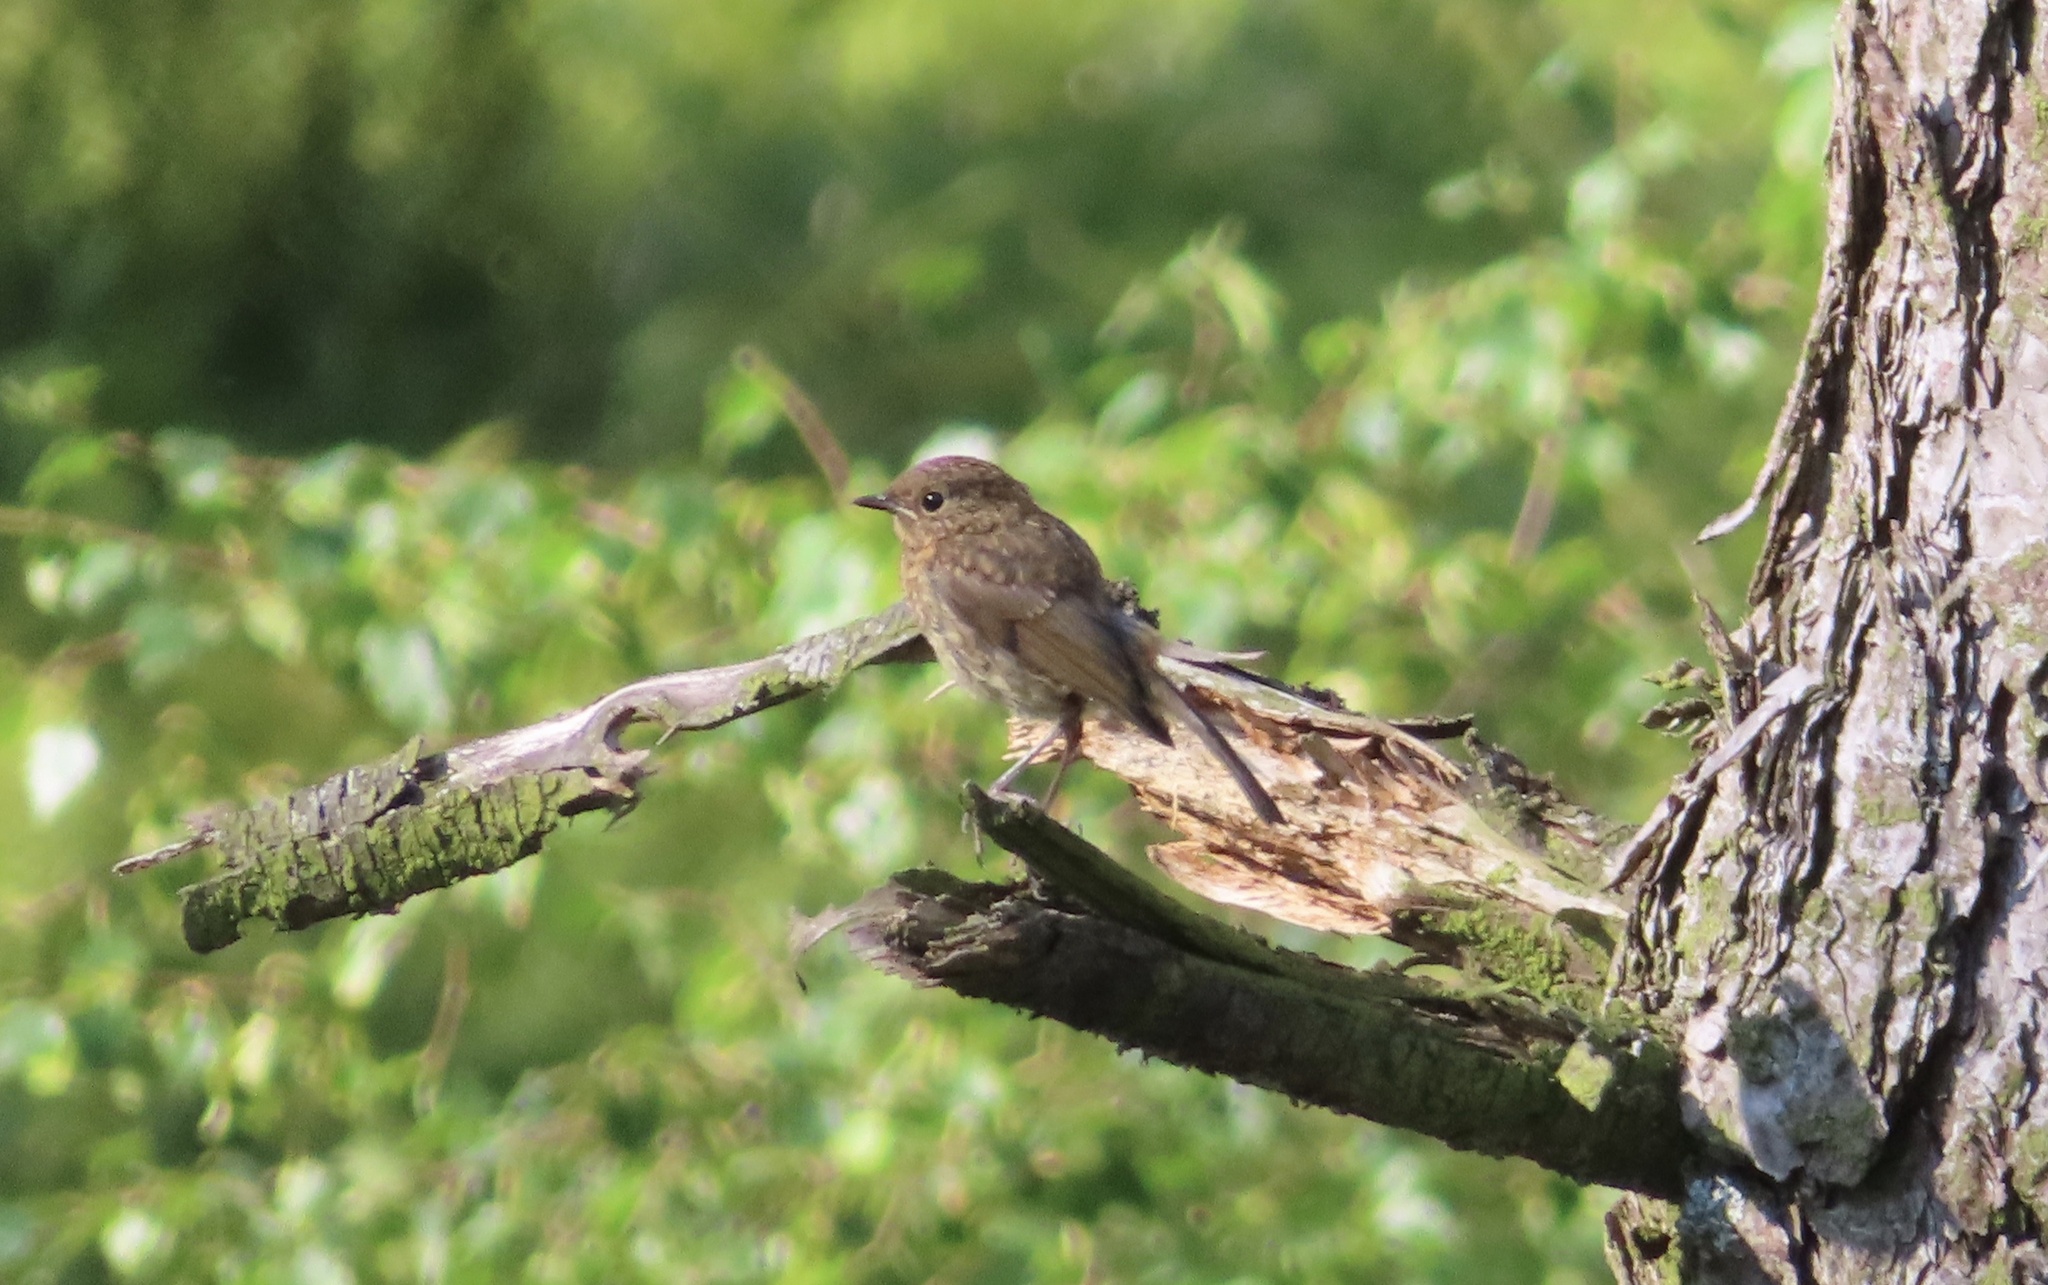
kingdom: Animalia
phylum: Chordata
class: Aves
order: Passeriformes
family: Muscicapidae
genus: Erithacus
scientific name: Erithacus rubecula
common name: European robin
